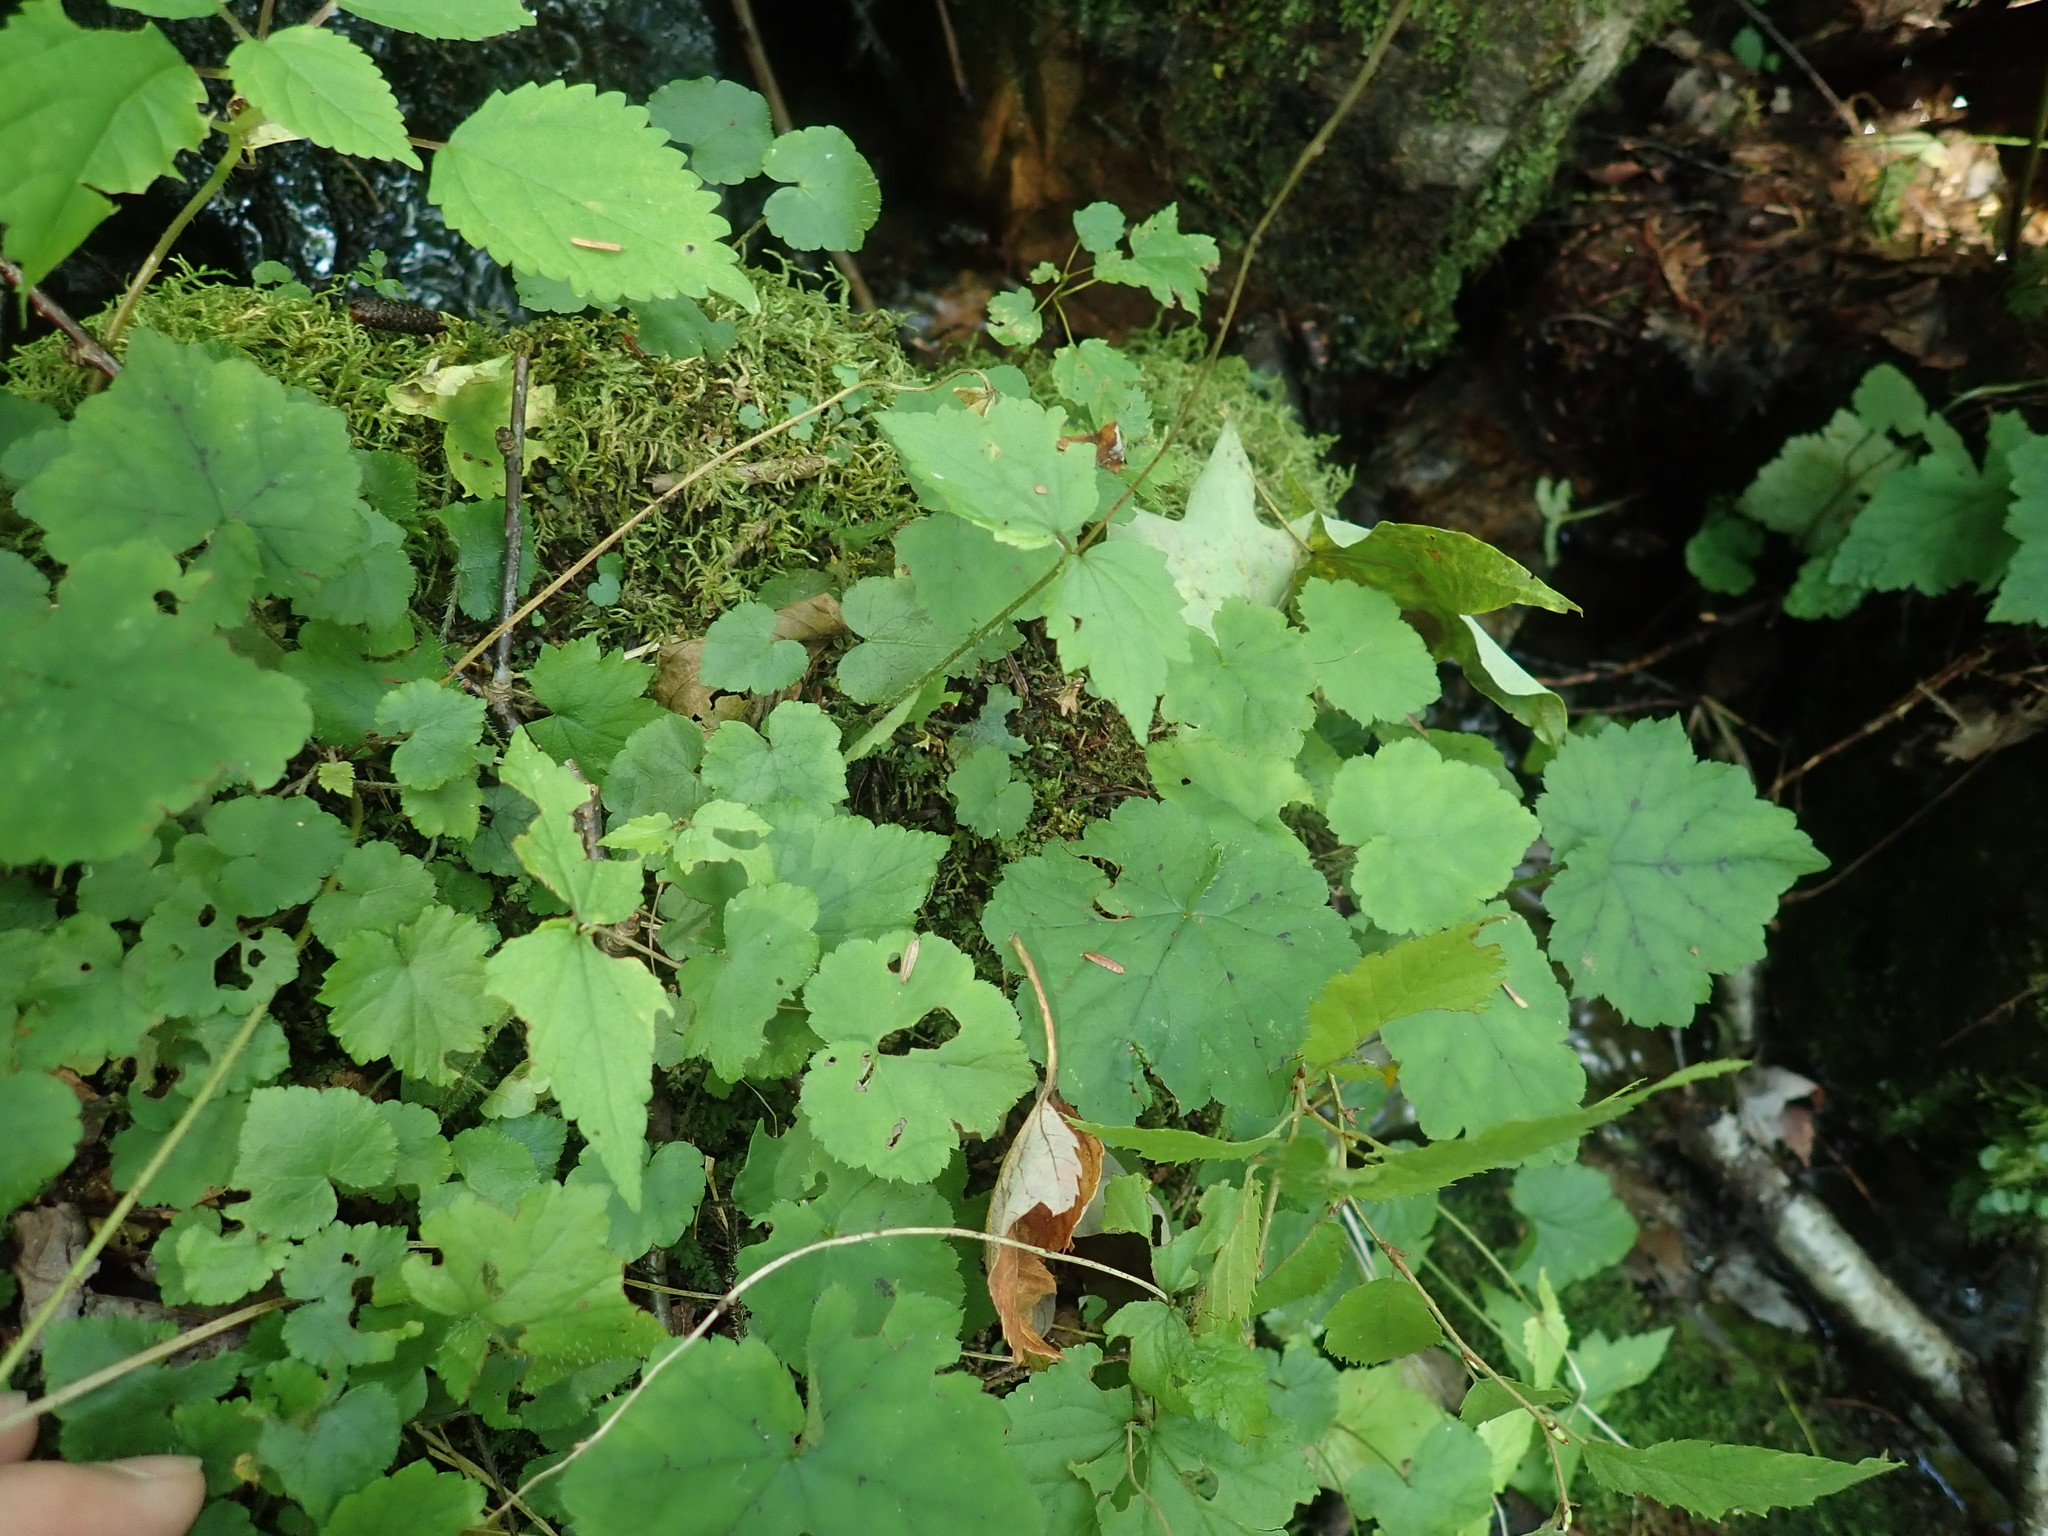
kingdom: Plantae
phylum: Tracheophyta
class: Magnoliopsida
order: Saxifragales
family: Saxifragaceae
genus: Mitella
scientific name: Mitella diphylla
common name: Coolwort
